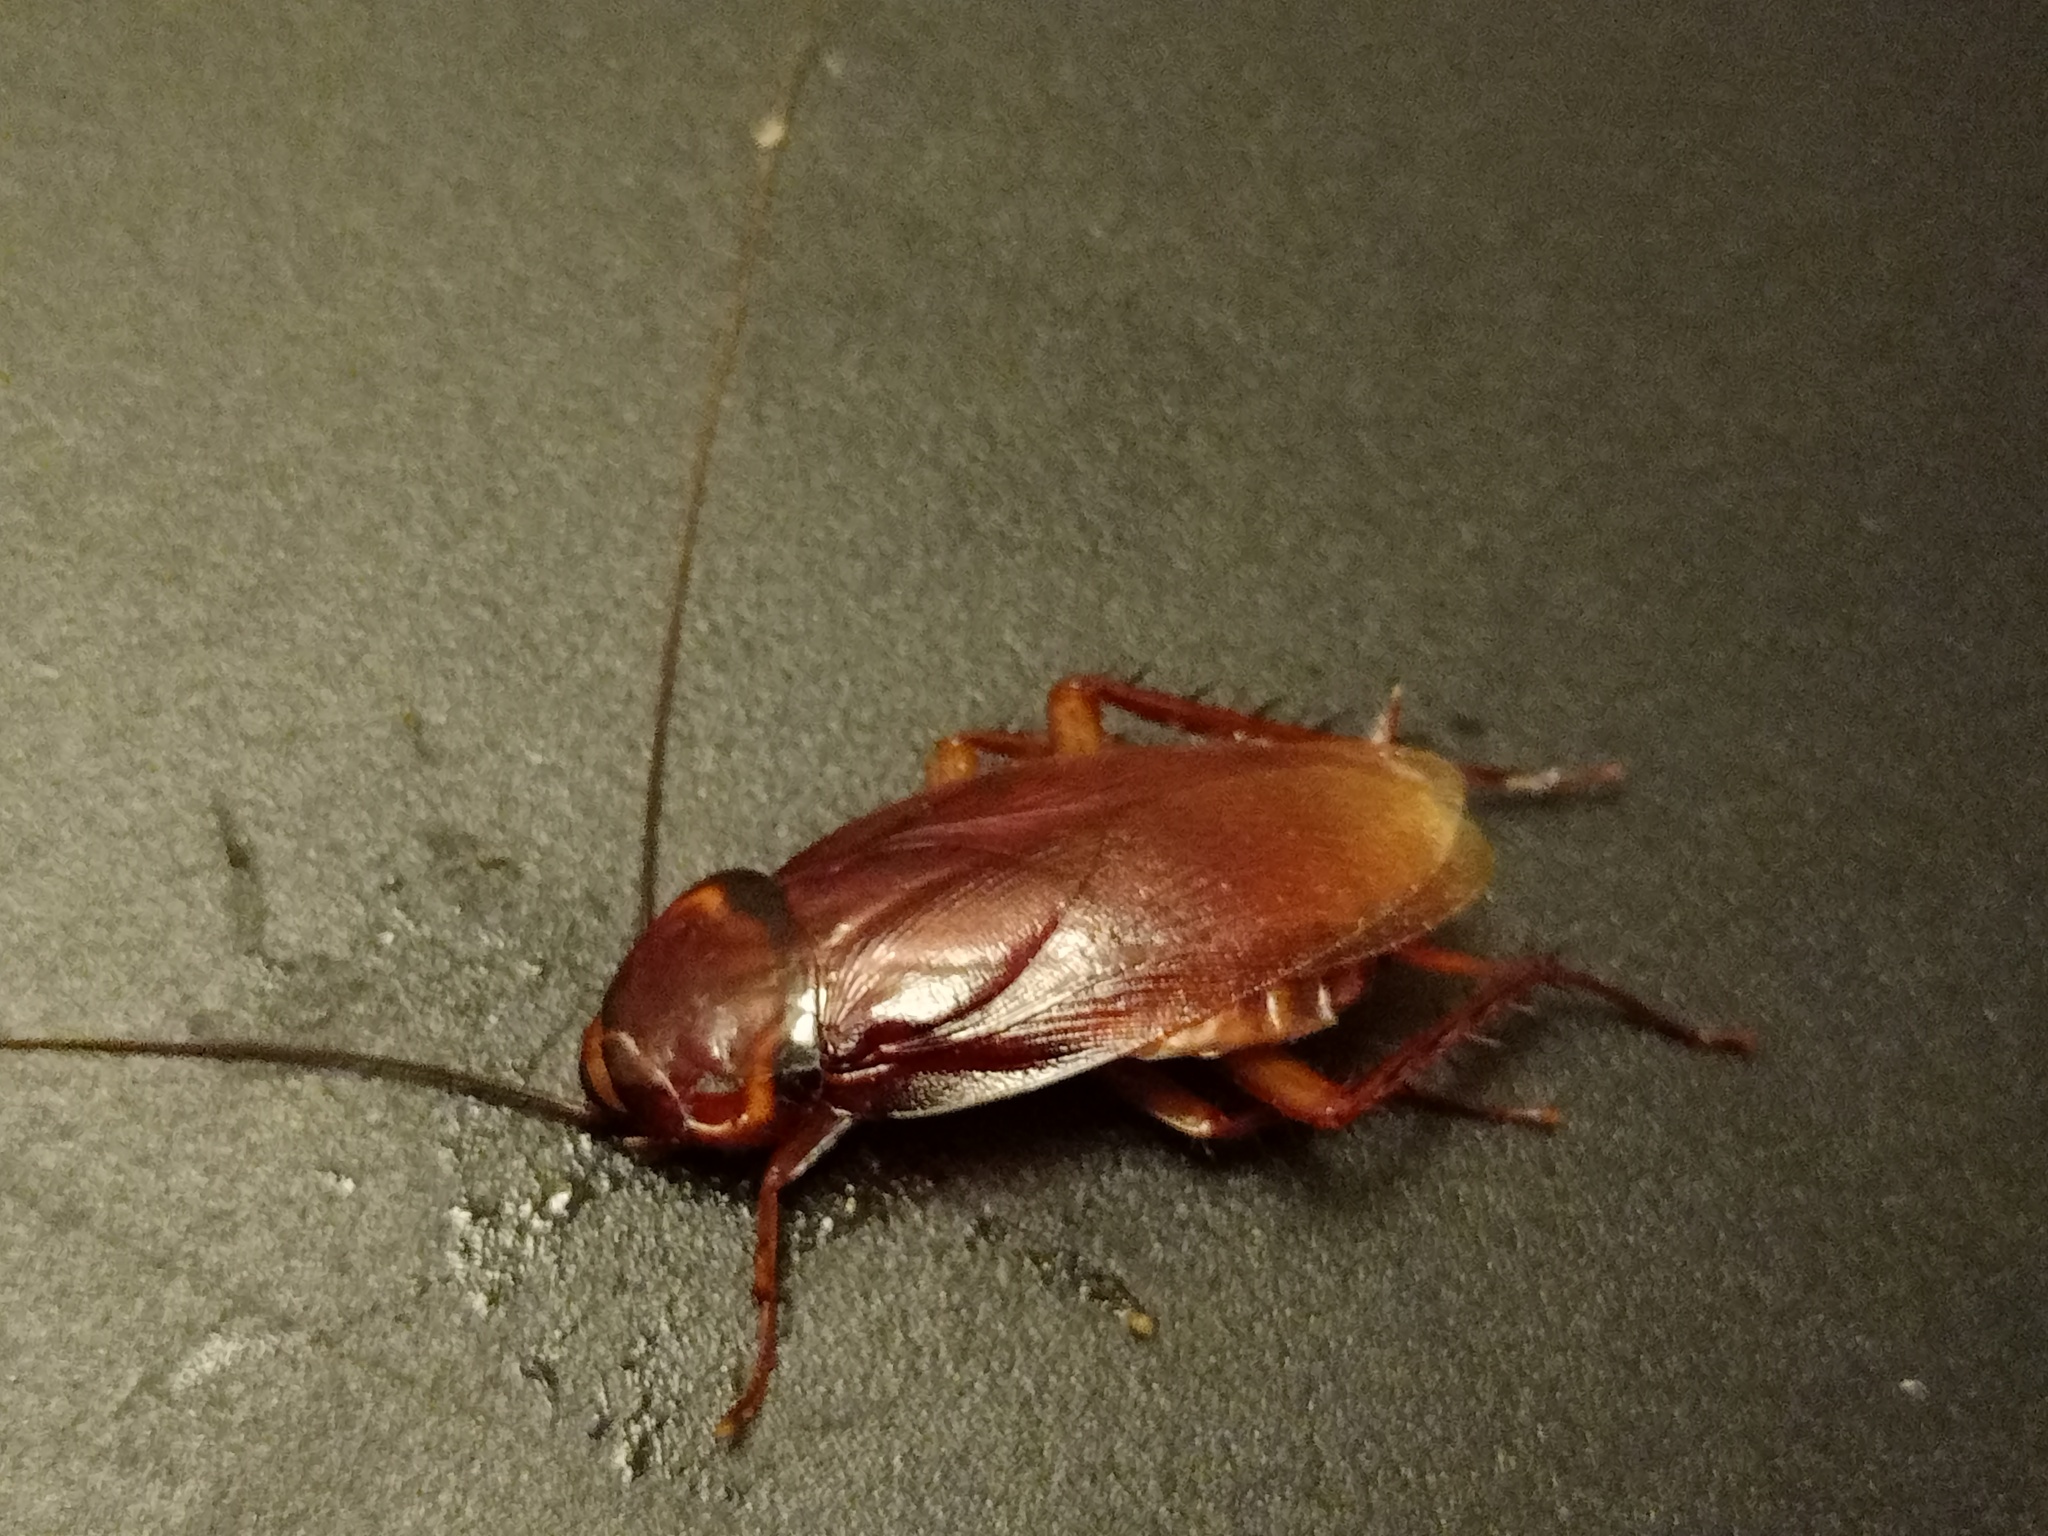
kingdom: Animalia
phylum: Arthropoda
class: Insecta
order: Blattodea
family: Blattidae
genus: Periplaneta
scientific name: Periplaneta americana
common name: American cockroach
